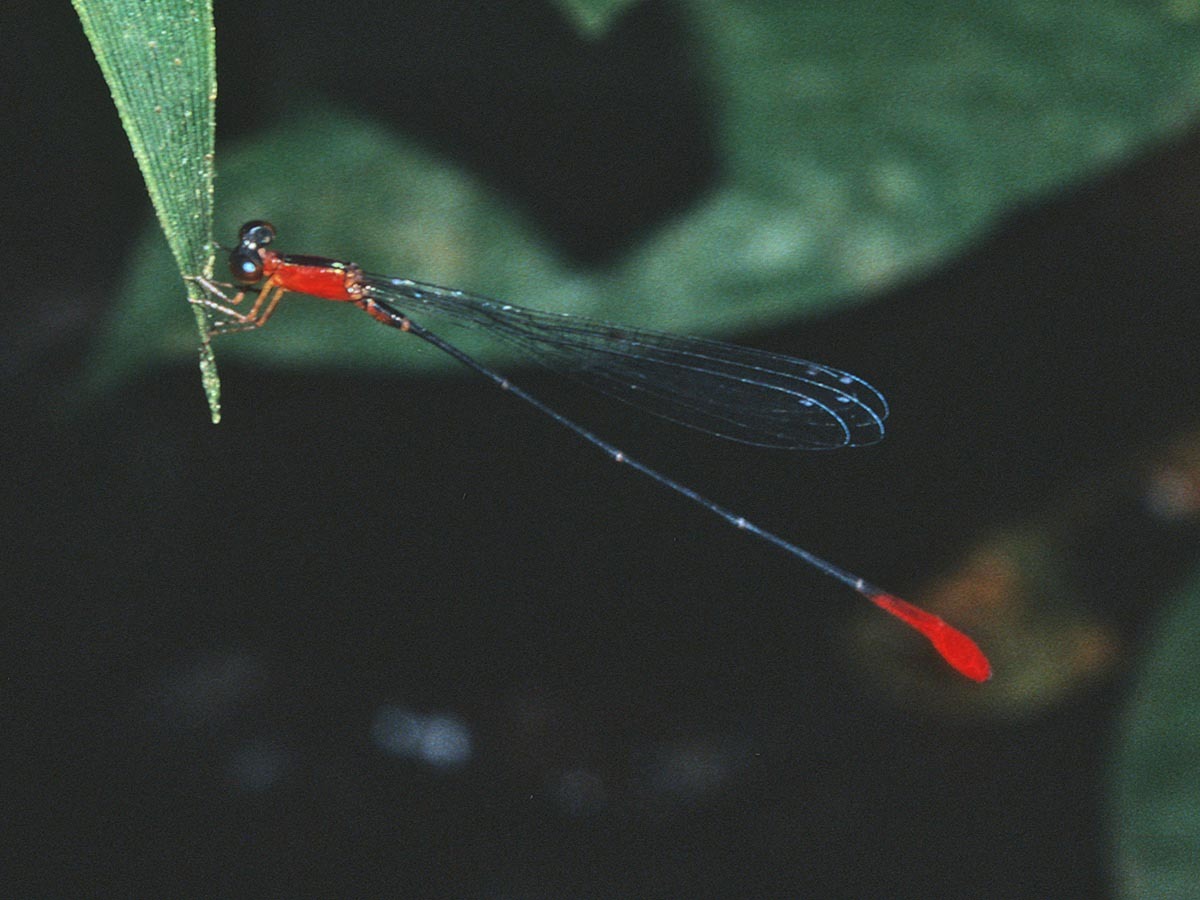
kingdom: Animalia
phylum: Arthropoda
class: Insecta
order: Odonata
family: Coenagrionidae
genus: Psaironeura
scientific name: Psaironeura tenuissima
